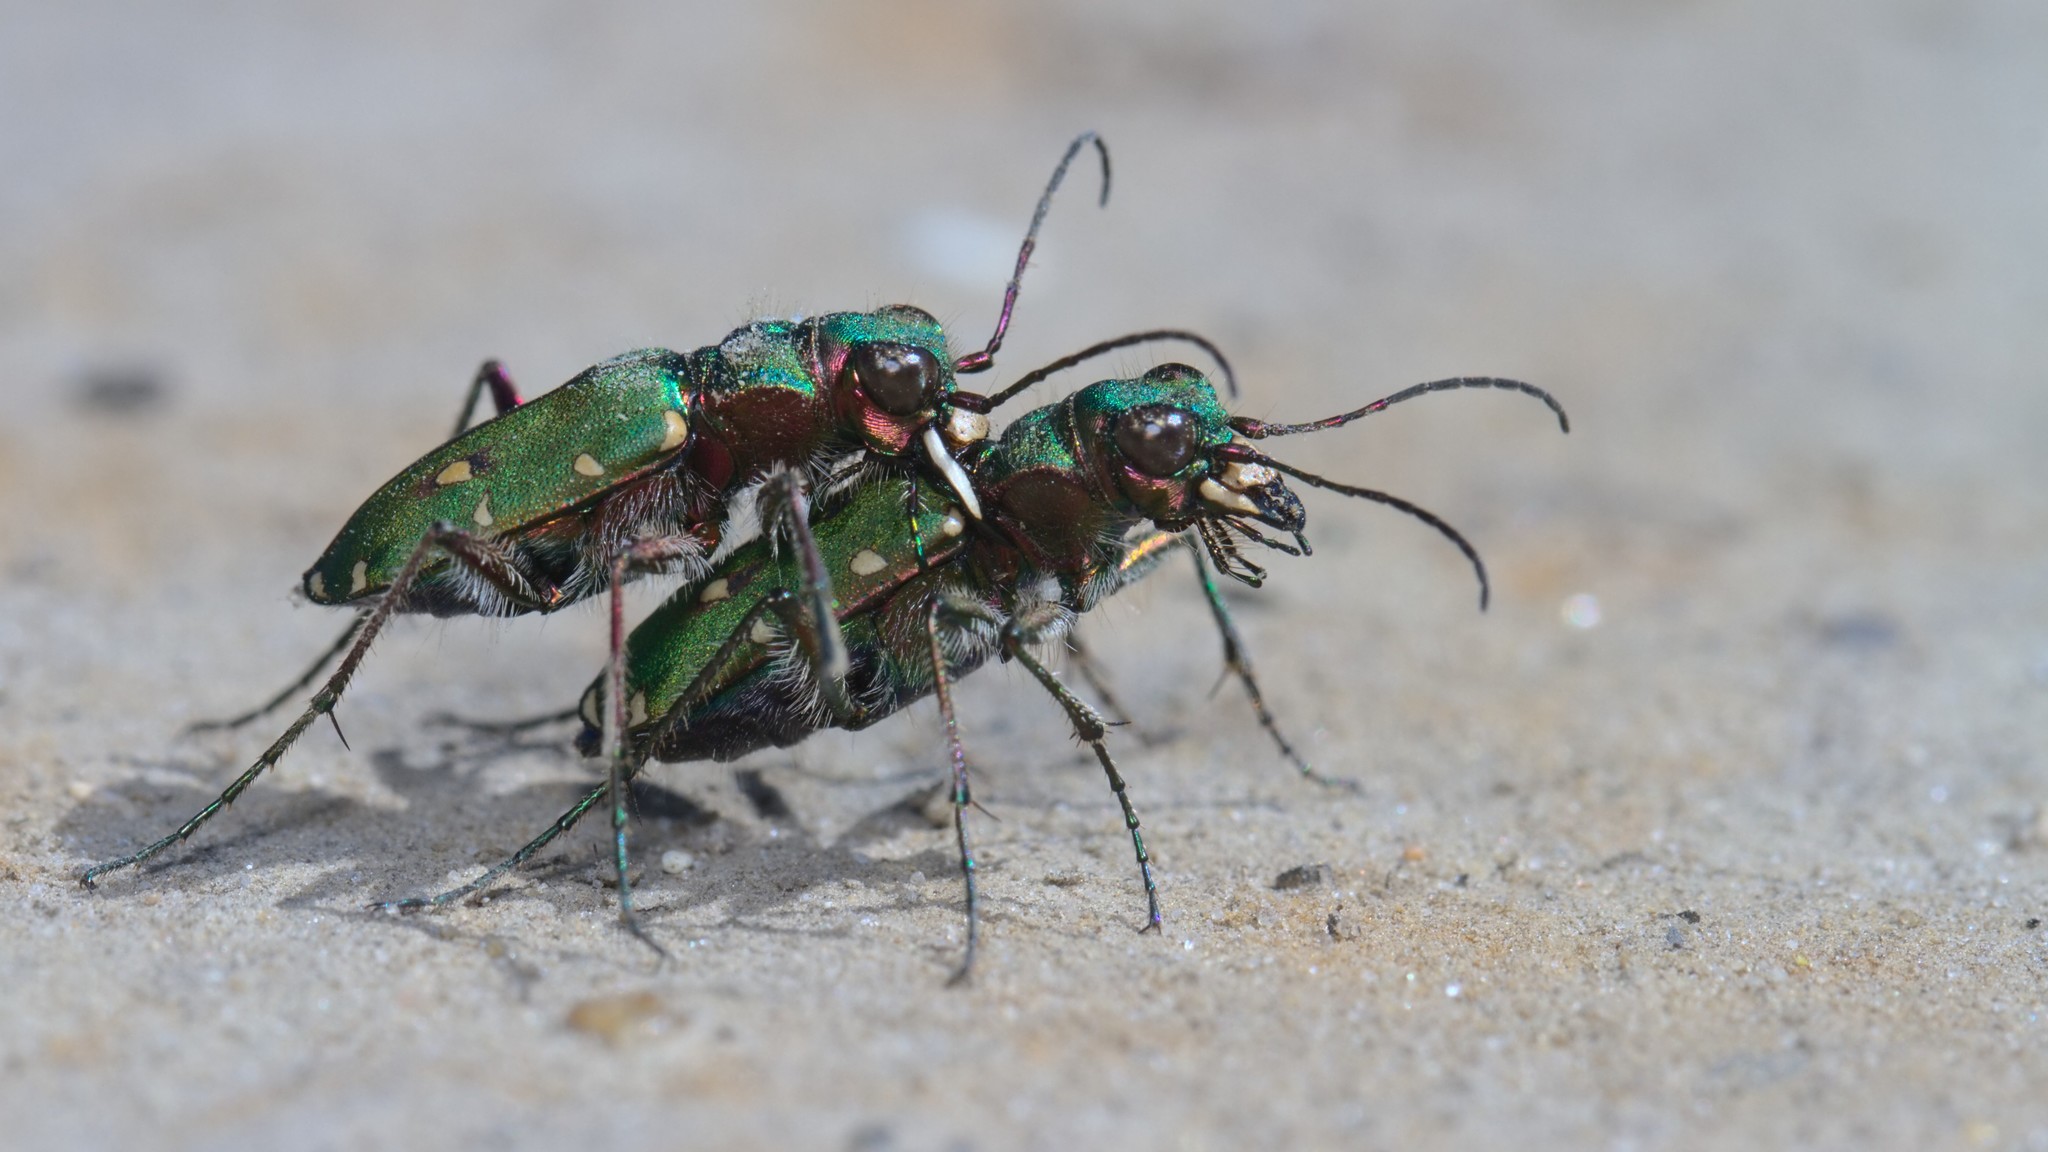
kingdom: Animalia
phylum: Arthropoda
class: Insecta
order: Coleoptera
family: Carabidae
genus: Cicindela
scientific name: Cicindela campestris
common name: Common tiger beetle
